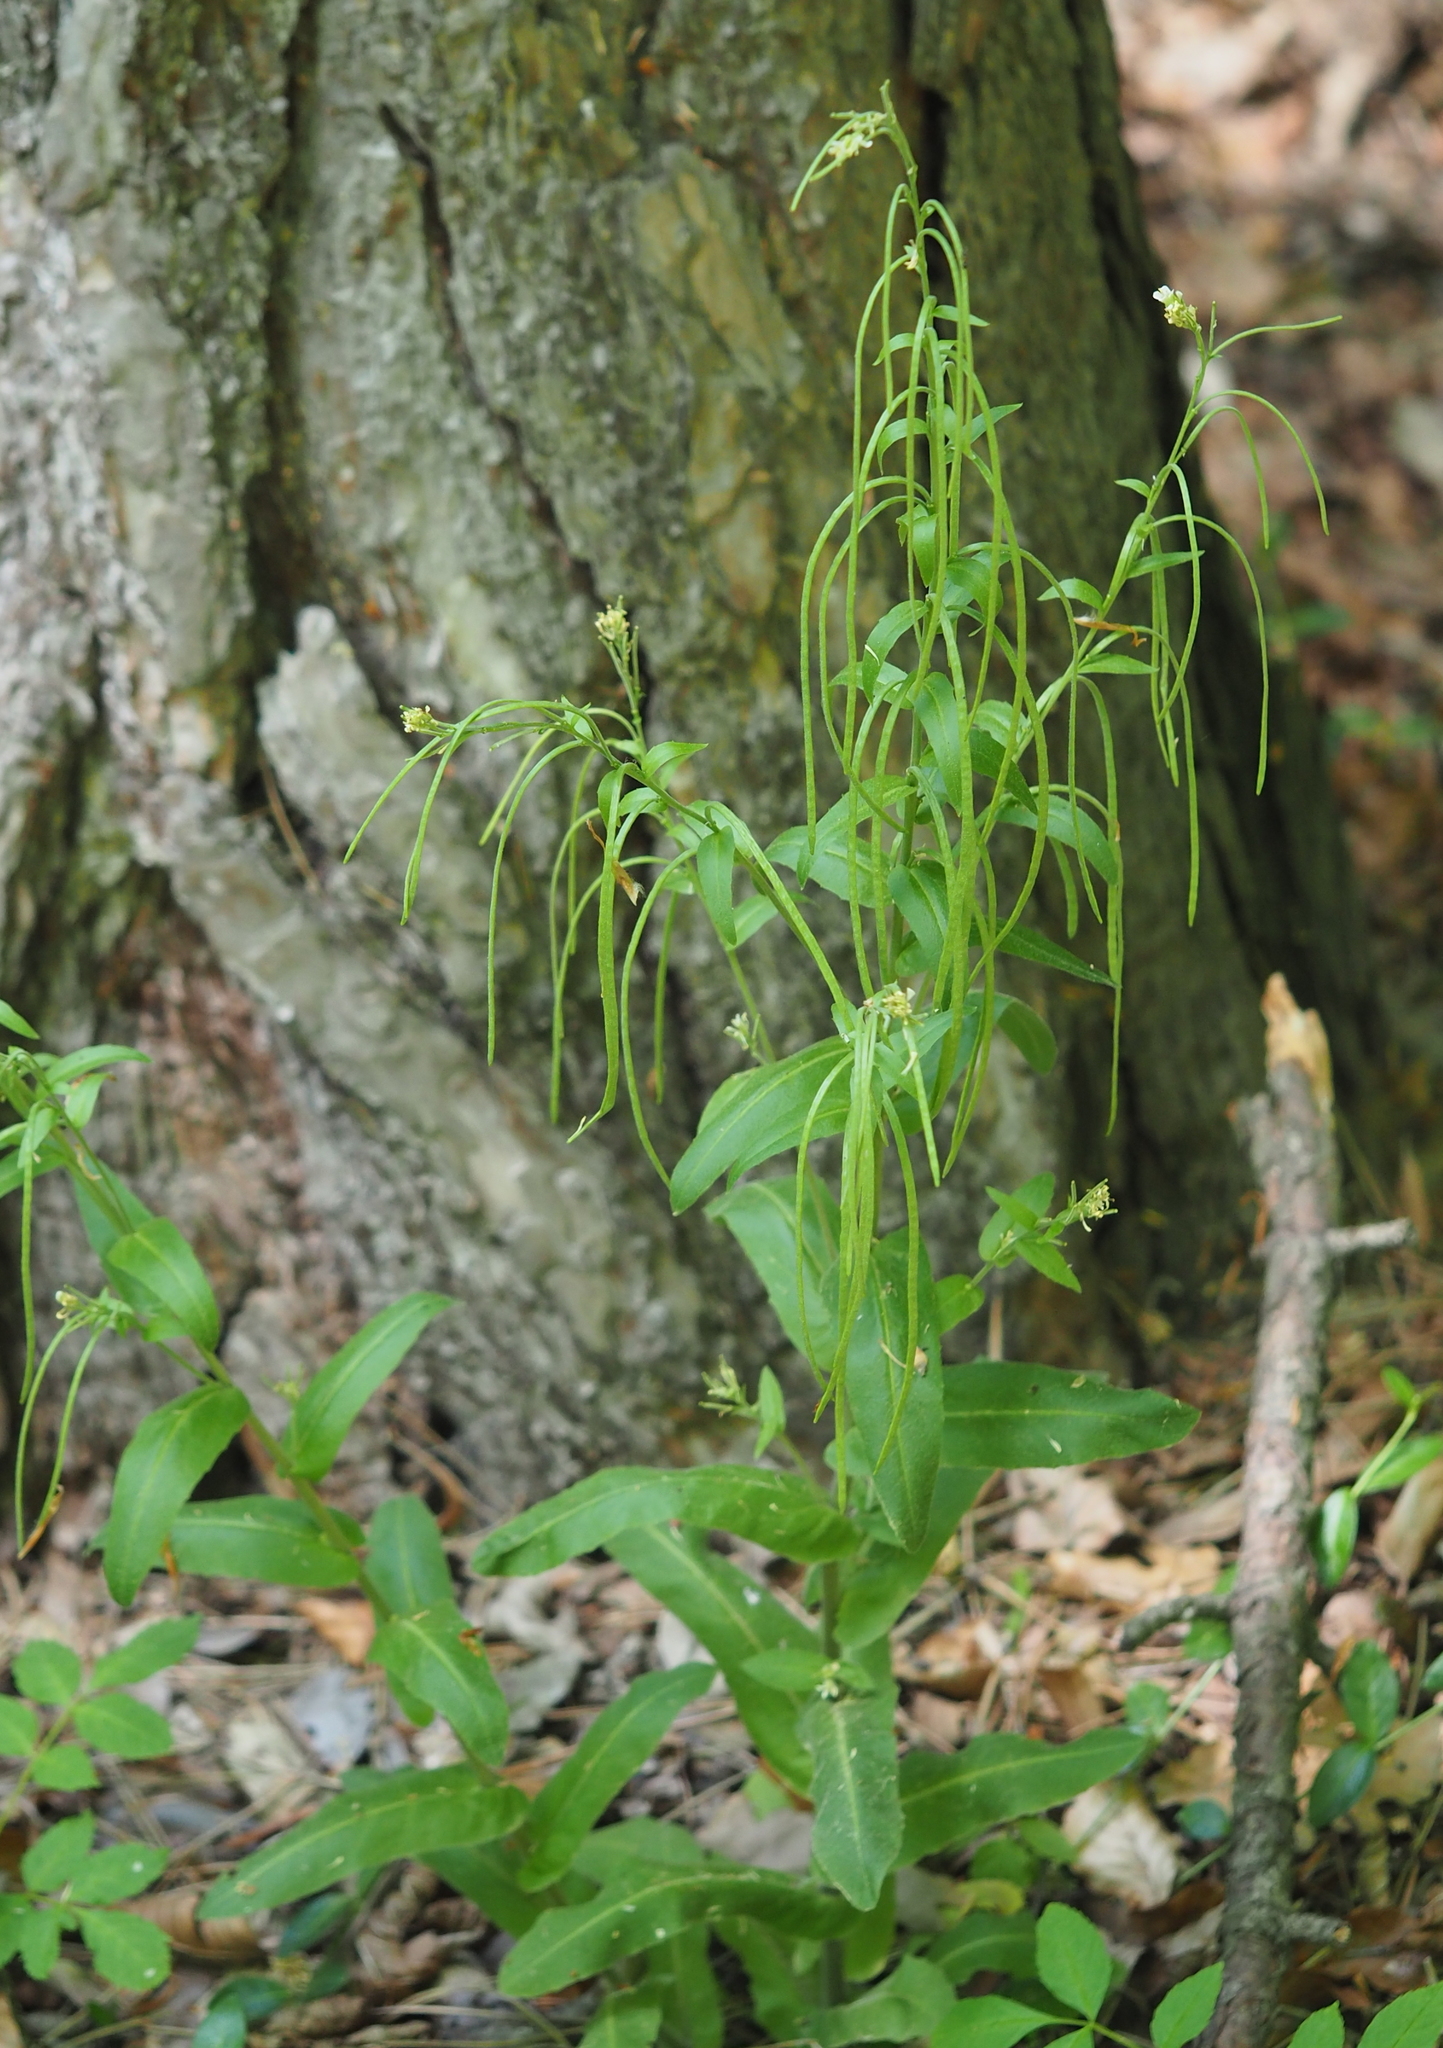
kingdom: Plantae
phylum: Tracheophyta
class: Magnoliopsida
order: Brassicales
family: Brassicaceae
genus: Pseudoturritis
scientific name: Pseudoturritis turrita
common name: Tower cress
